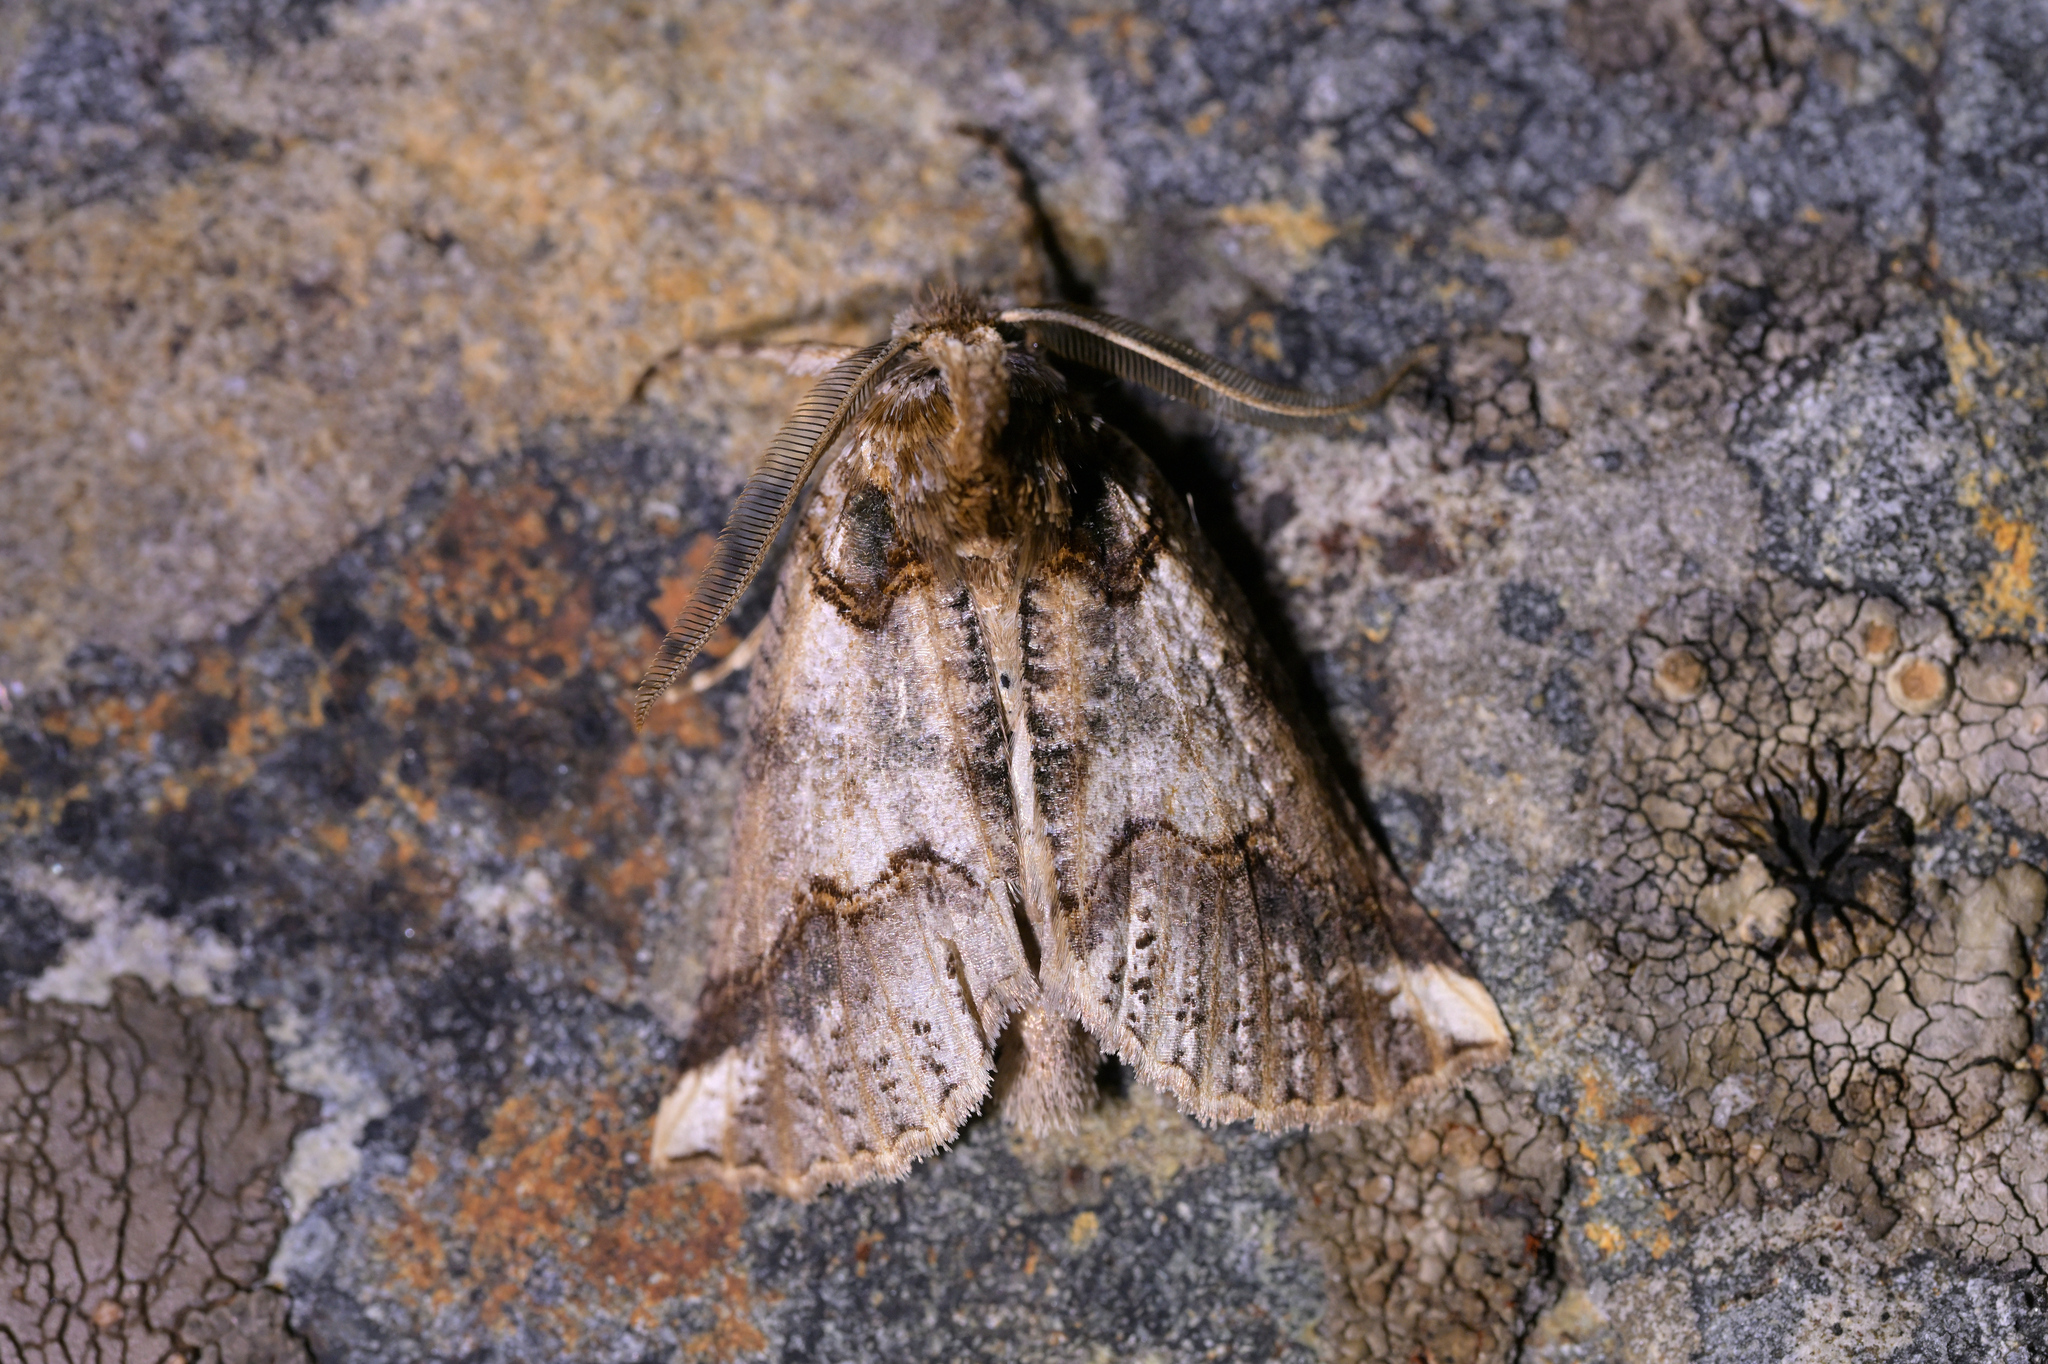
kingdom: Animalia
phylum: Arthropoda
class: Insecta
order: Lepidoptera
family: Geometridae
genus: Declana
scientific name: Declana
